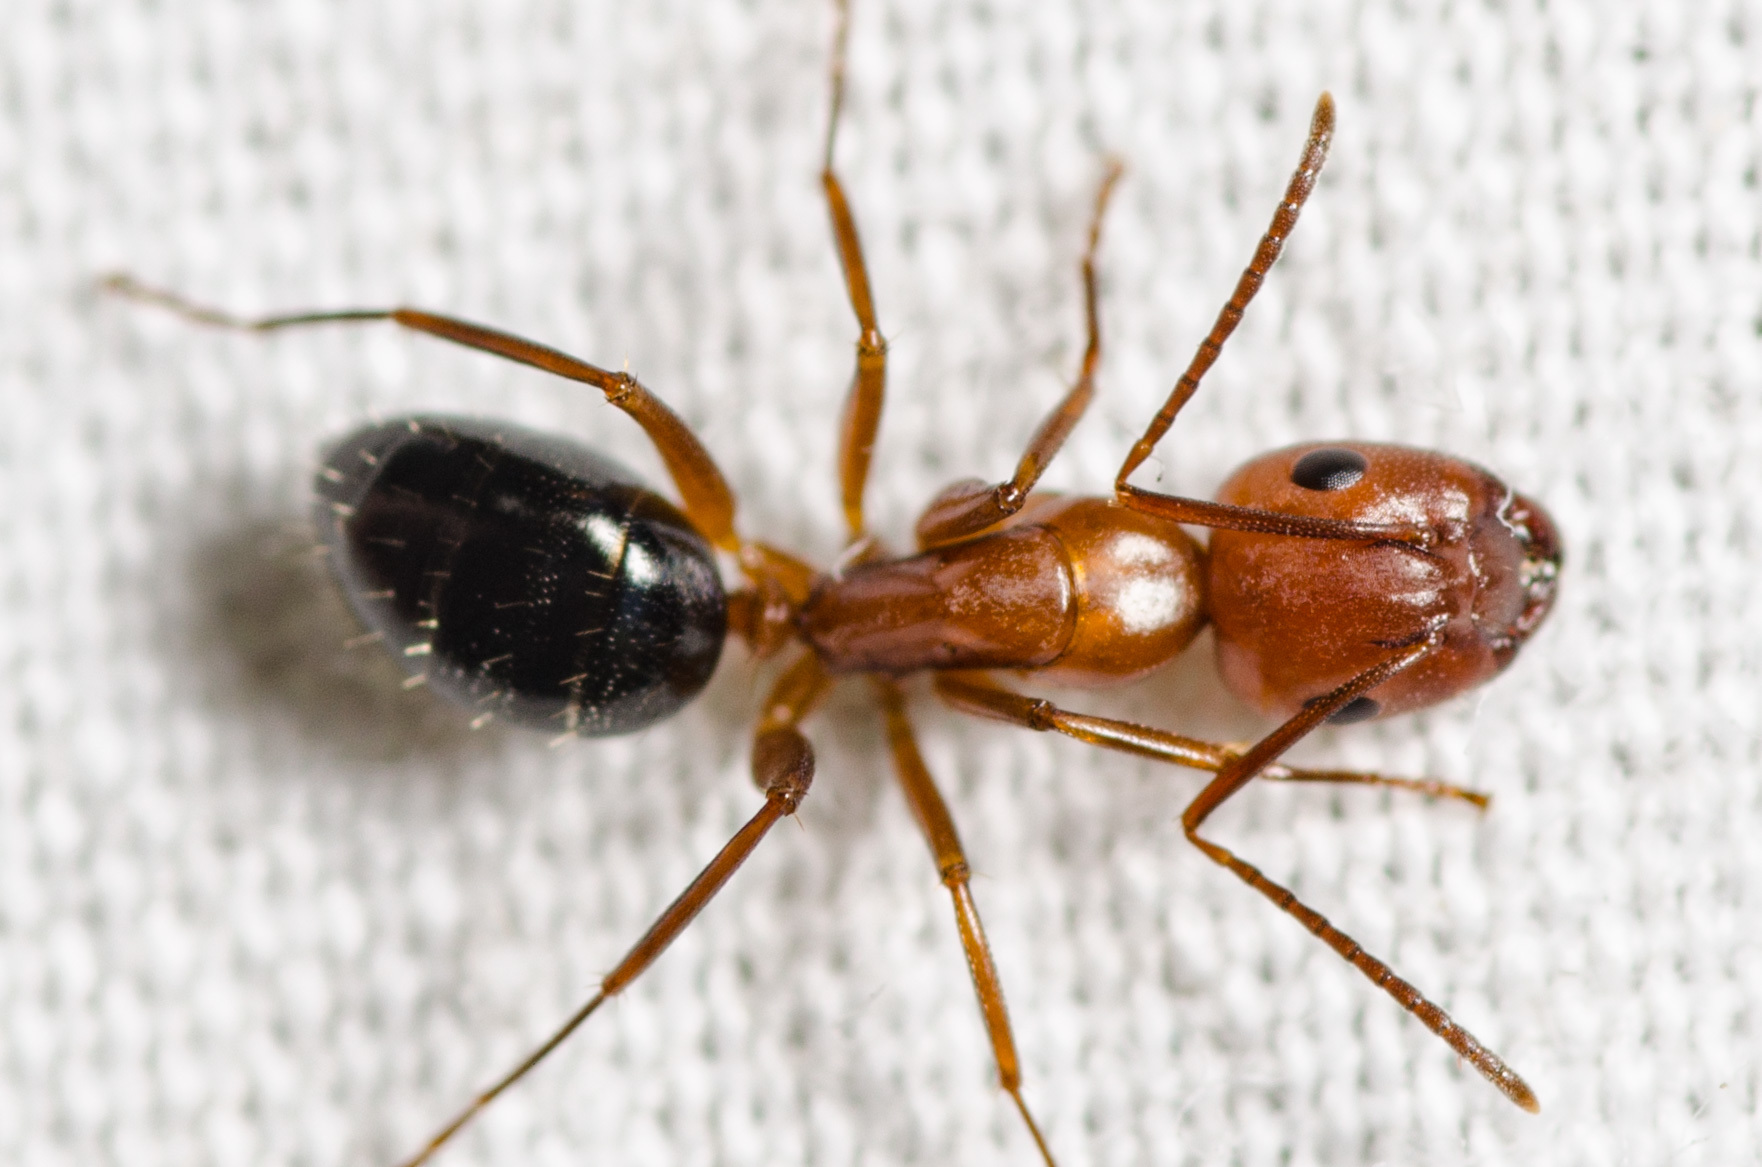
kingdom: Animalia
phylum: Arthropoda
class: Insecta
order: Hymenoptera
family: Formicidae
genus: Camponotus
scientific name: Camponotus discolor
